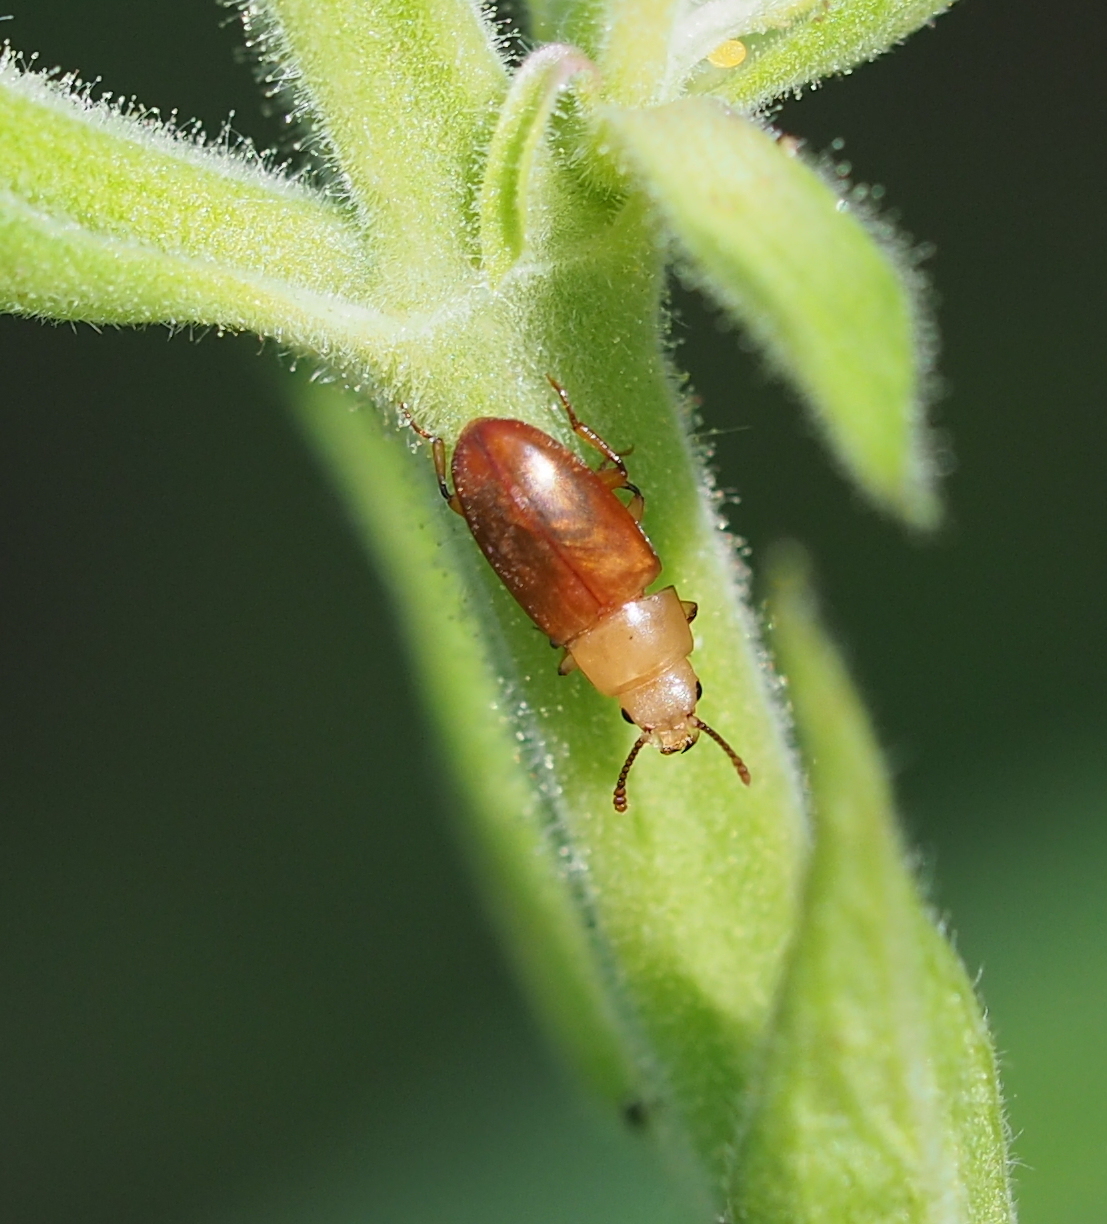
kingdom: Animalia
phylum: Arthropoda
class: Insecta
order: Coleoptera
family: Cryptophagidae
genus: Antherophagus
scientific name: Antherophagus pallens
